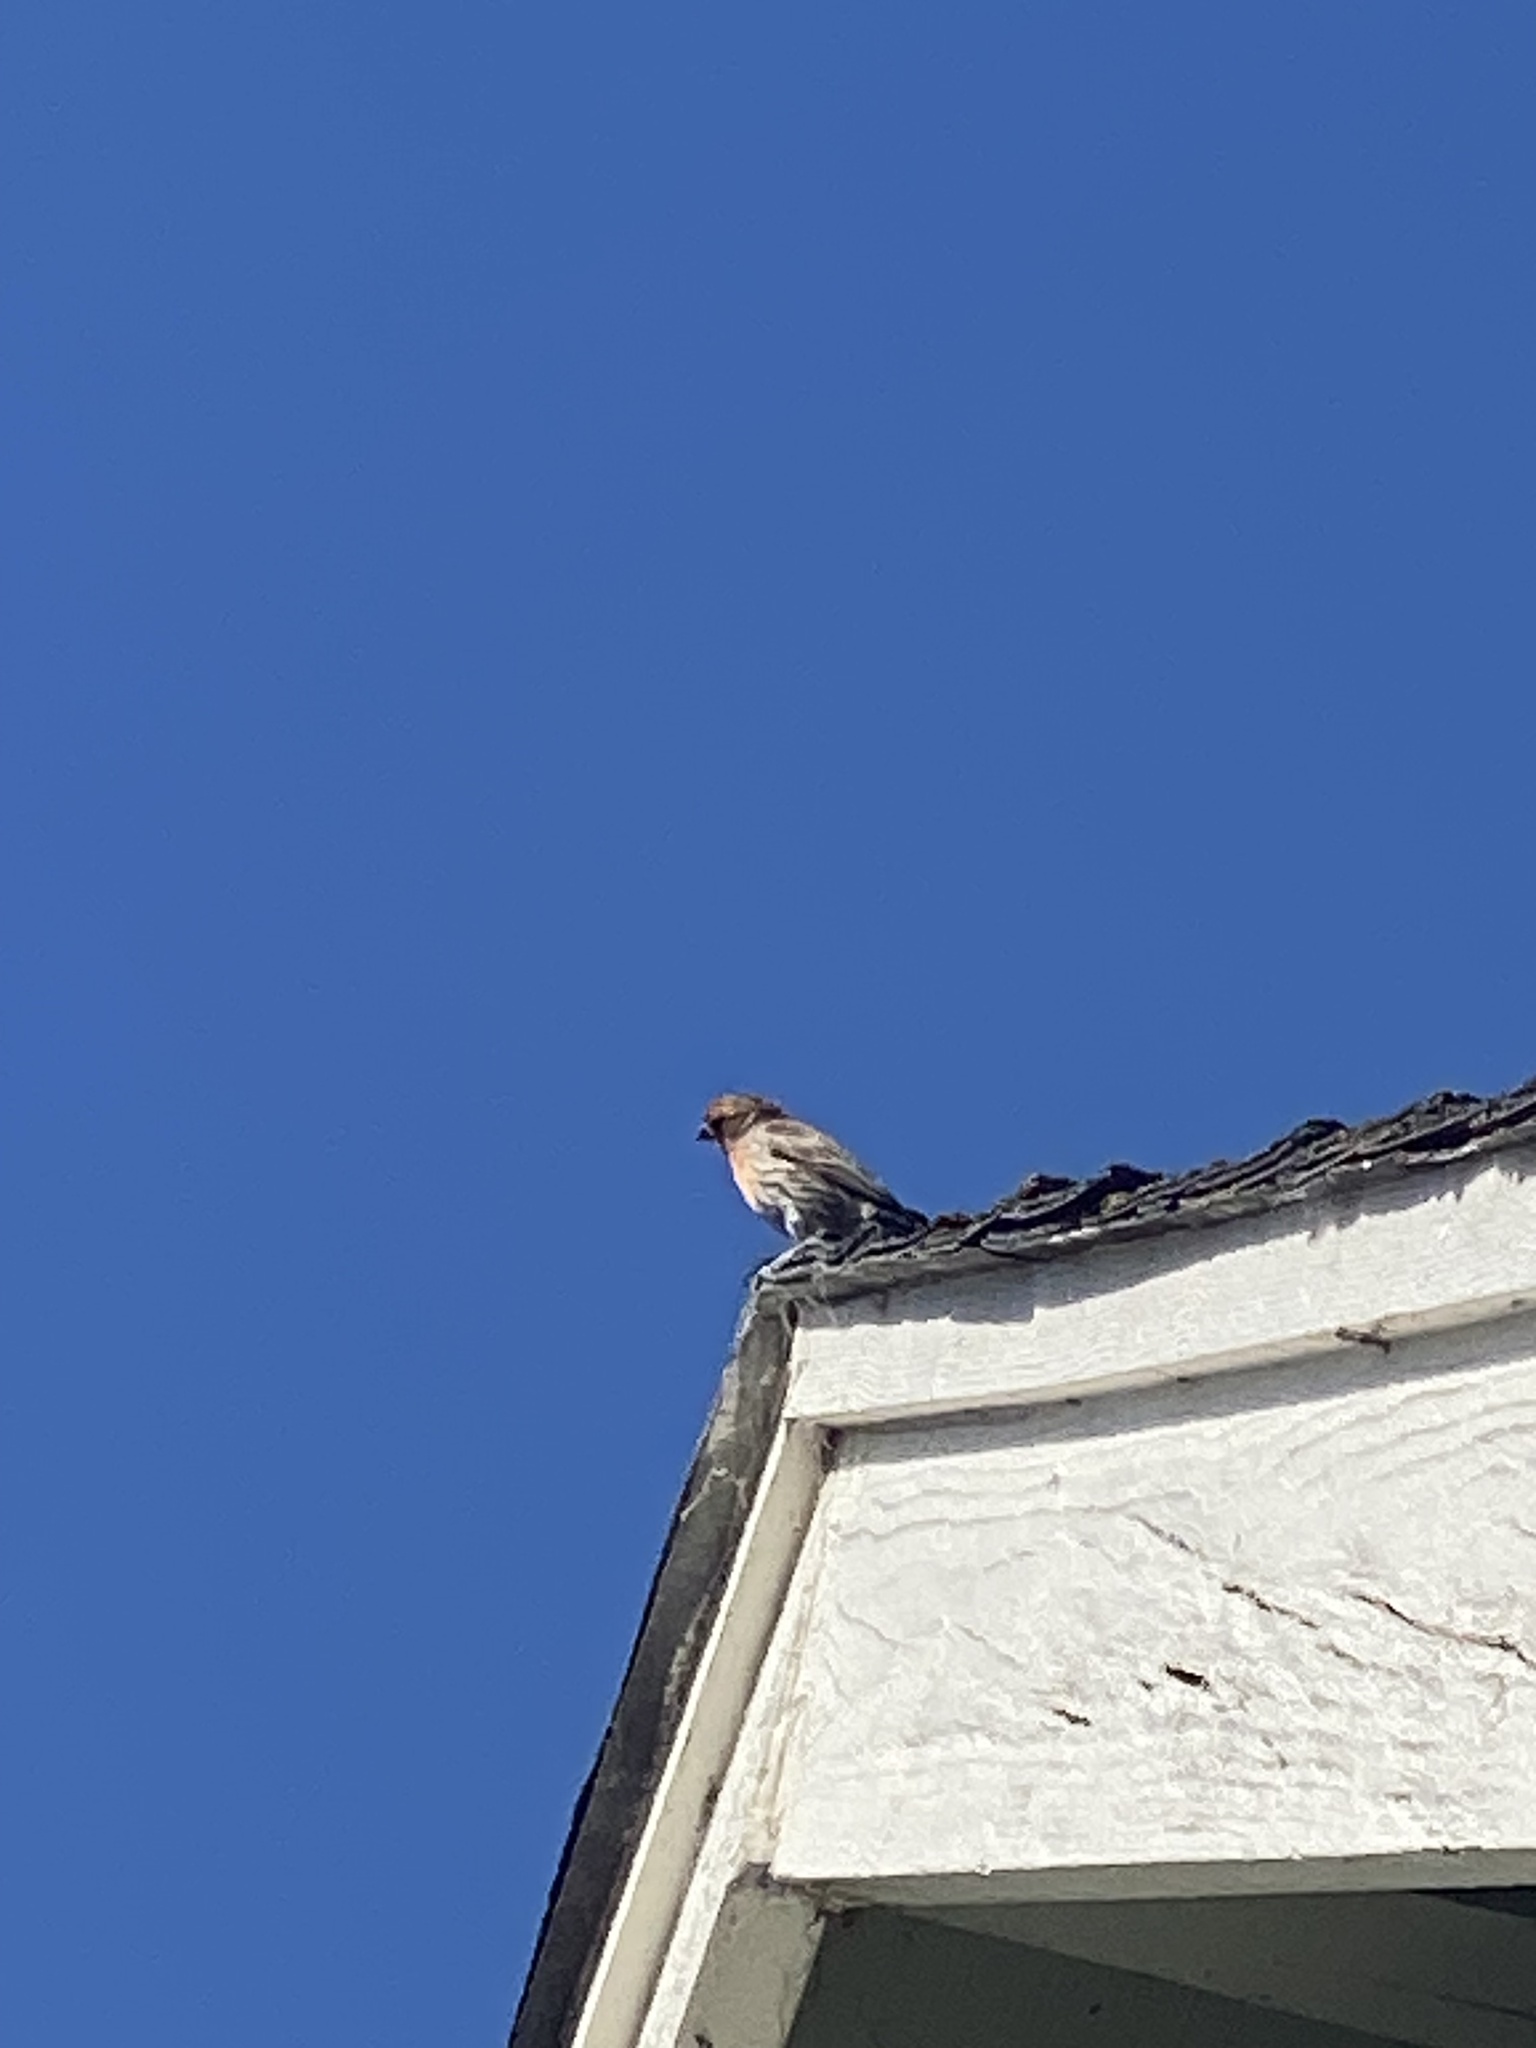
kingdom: Animalia
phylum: Chordata
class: Aves
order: Passeriformes
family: Fringillidae
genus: Haemorhous
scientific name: Haemorhous mexicanus
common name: House finch
